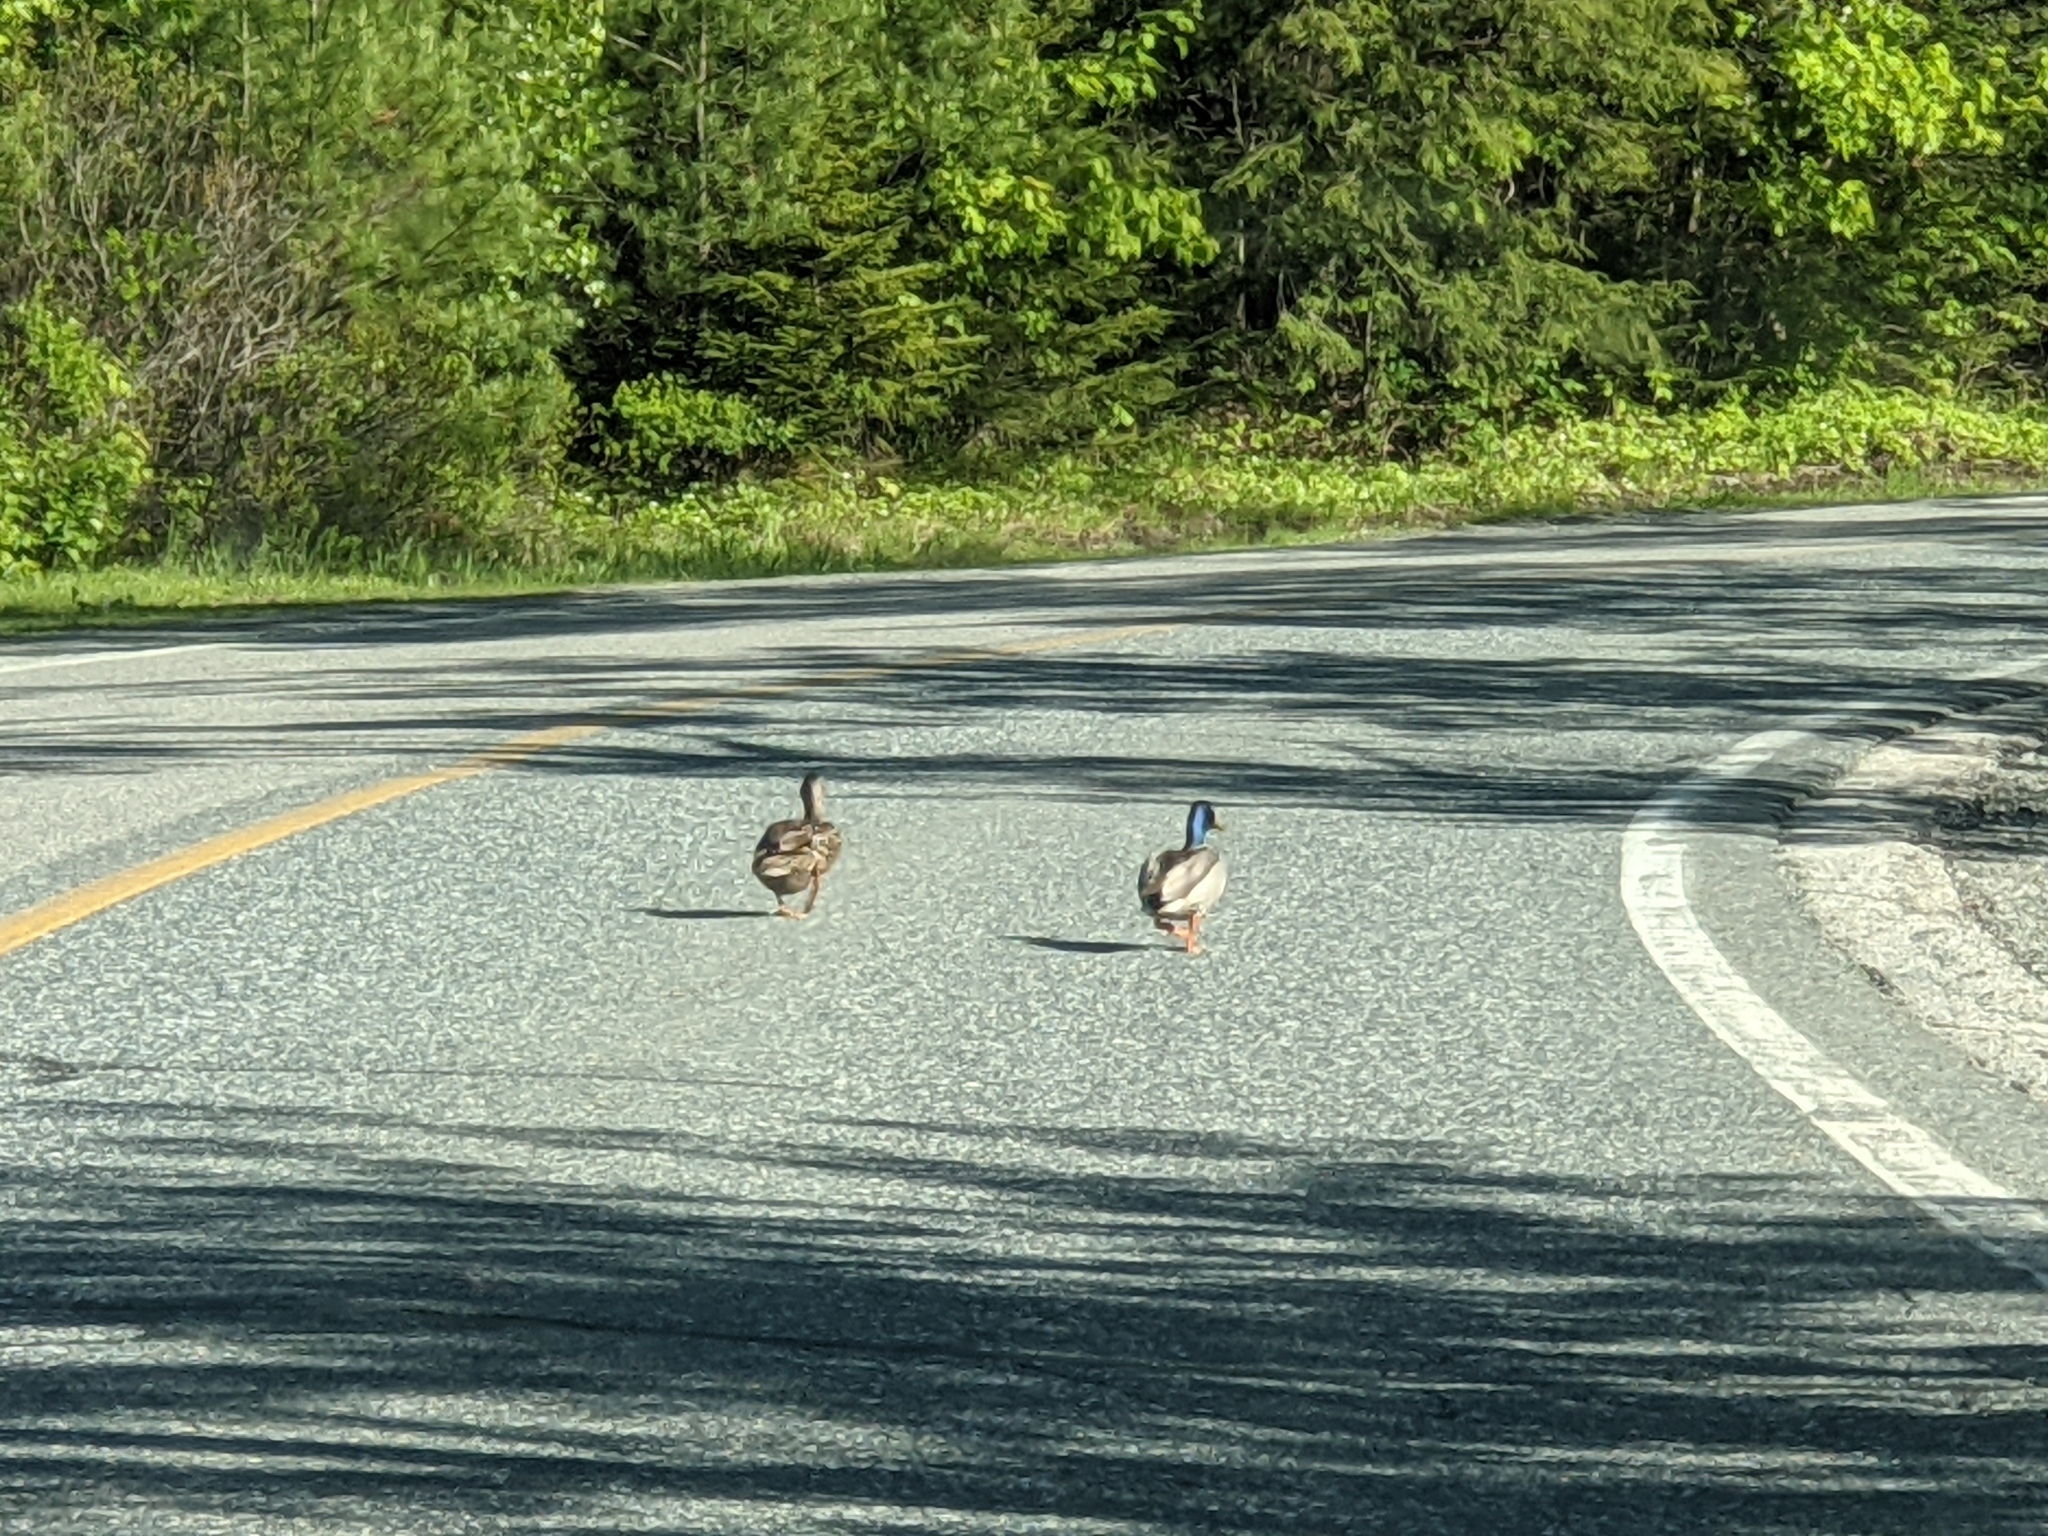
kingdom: Animalia
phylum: Chordata
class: Aves
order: Anseriformes
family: Anatidae
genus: Anas
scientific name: Anas platyrhynchos
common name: Mallard
